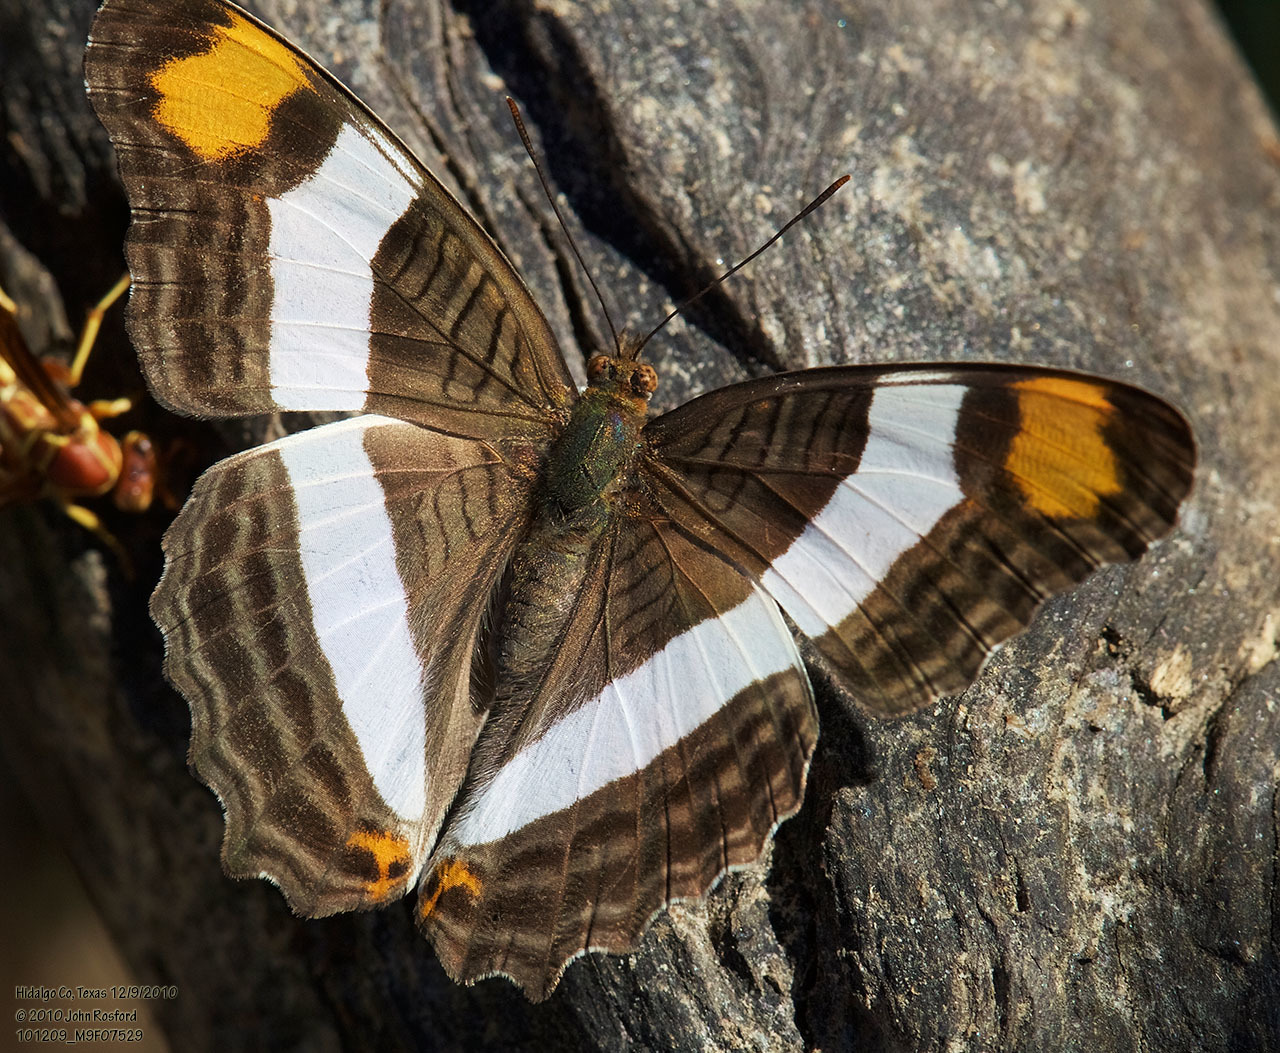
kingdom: Animalia
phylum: Arthropoda
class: Insecta
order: Lepidoptera
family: Nymphalidae
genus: Limenitis
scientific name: Limenitis fessonia
